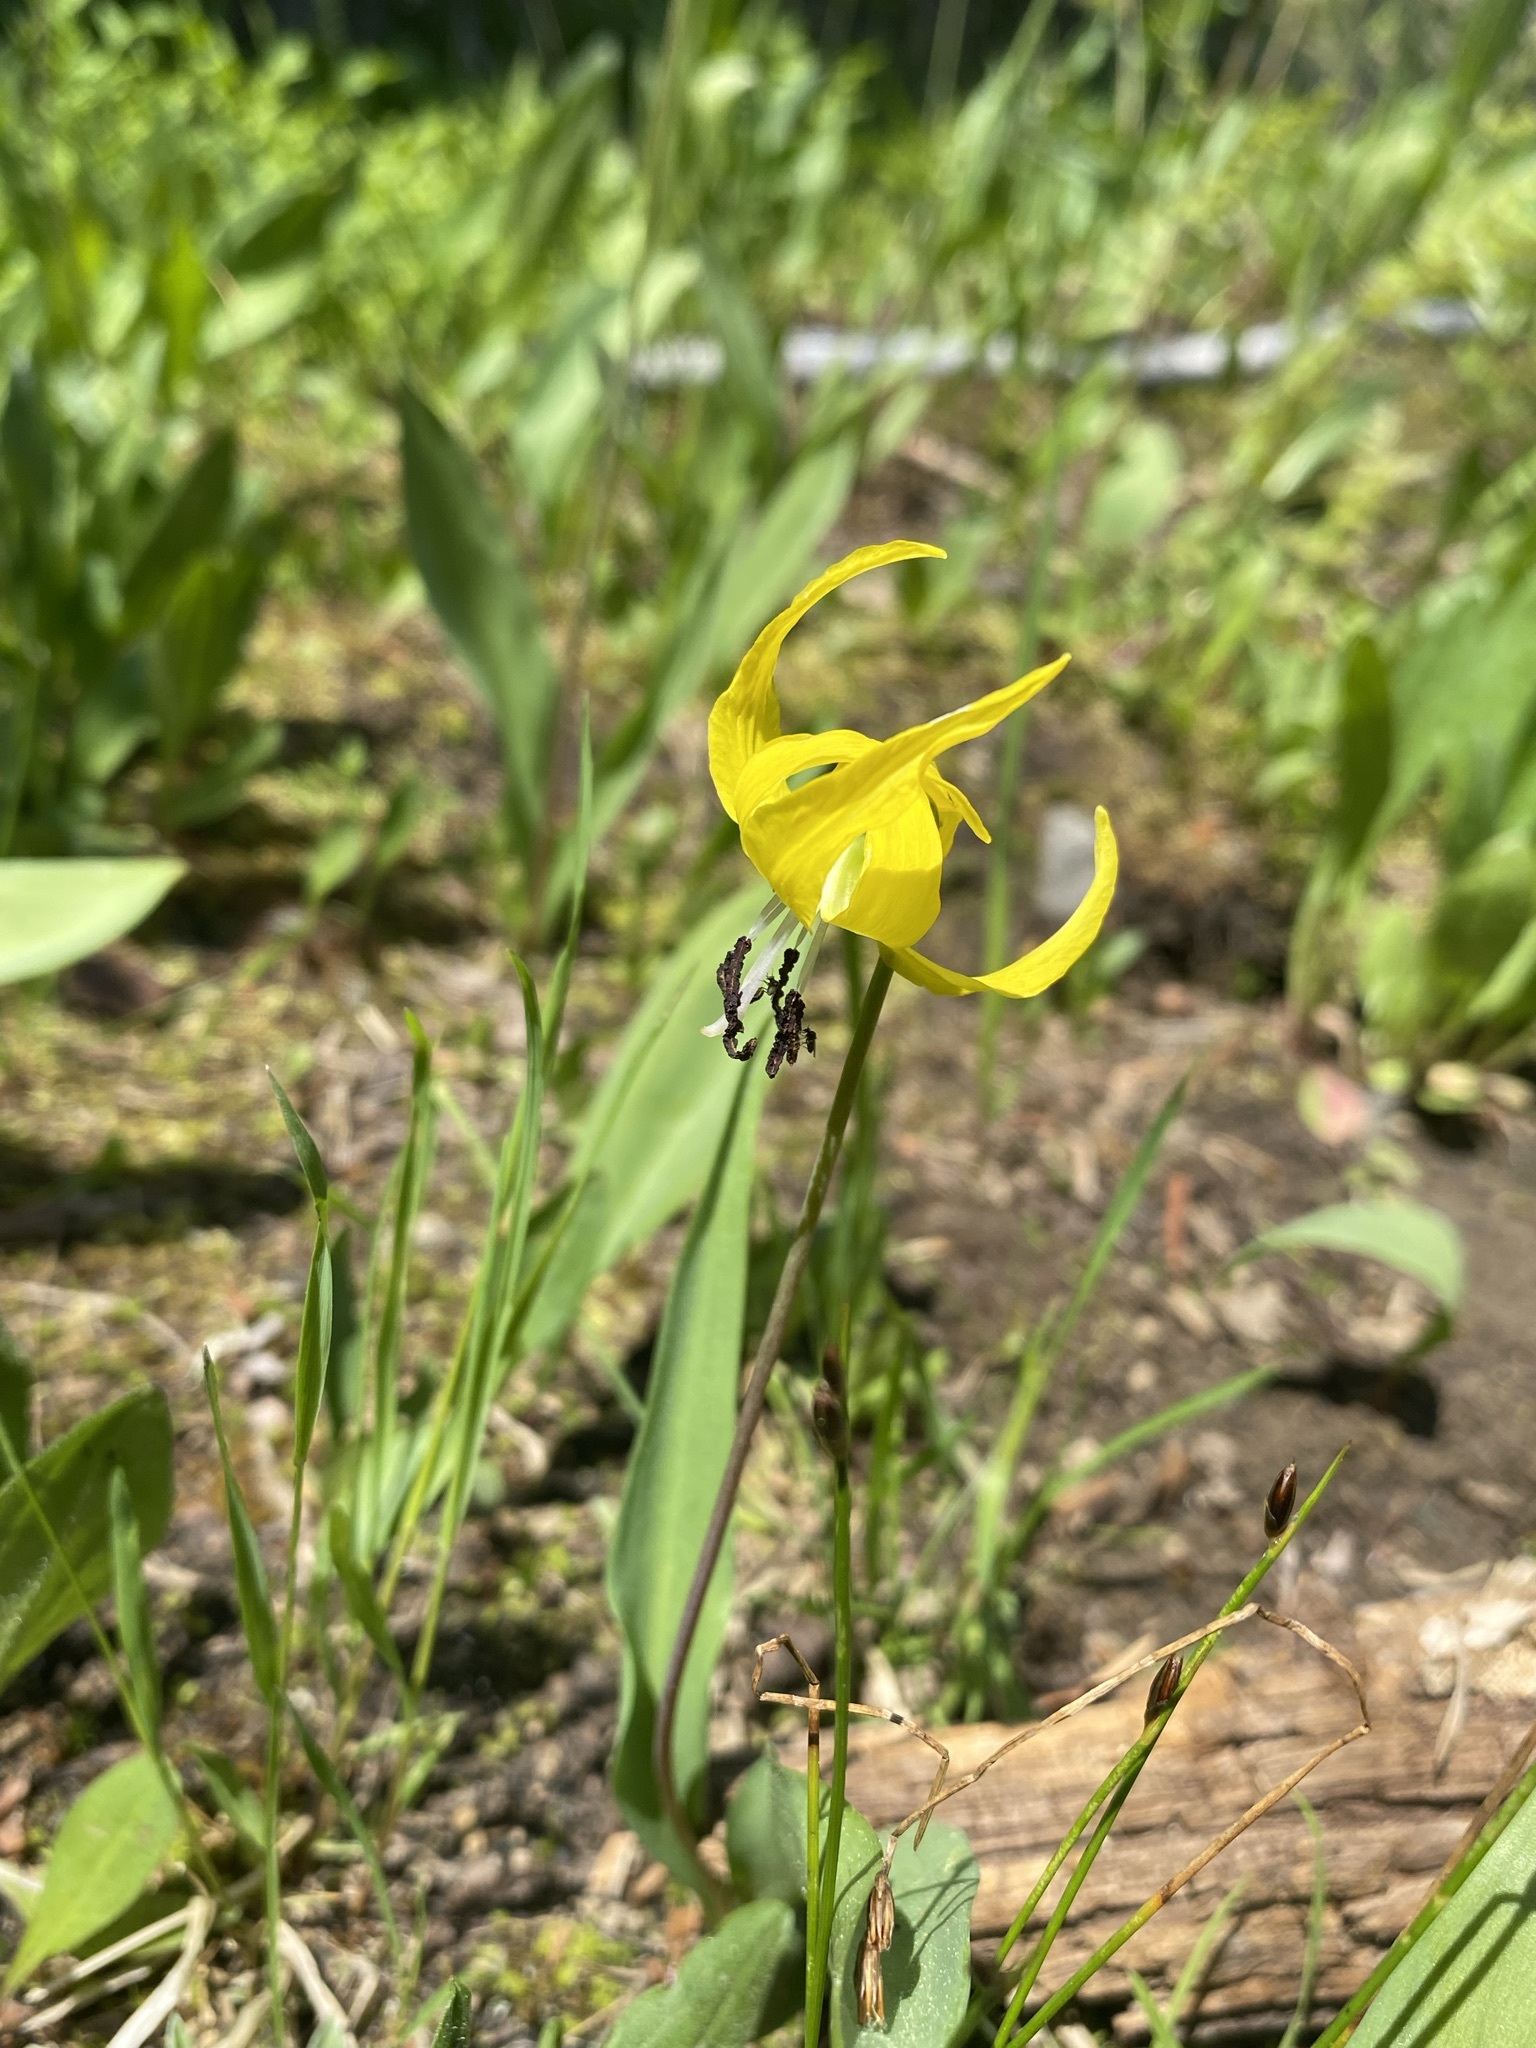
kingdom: Plantae
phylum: Tracheophyta
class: Liliopsida
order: Liliales
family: Liliaceae
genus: Erythronium
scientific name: Erythronium grandiflorum
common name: Avalanche-lily
